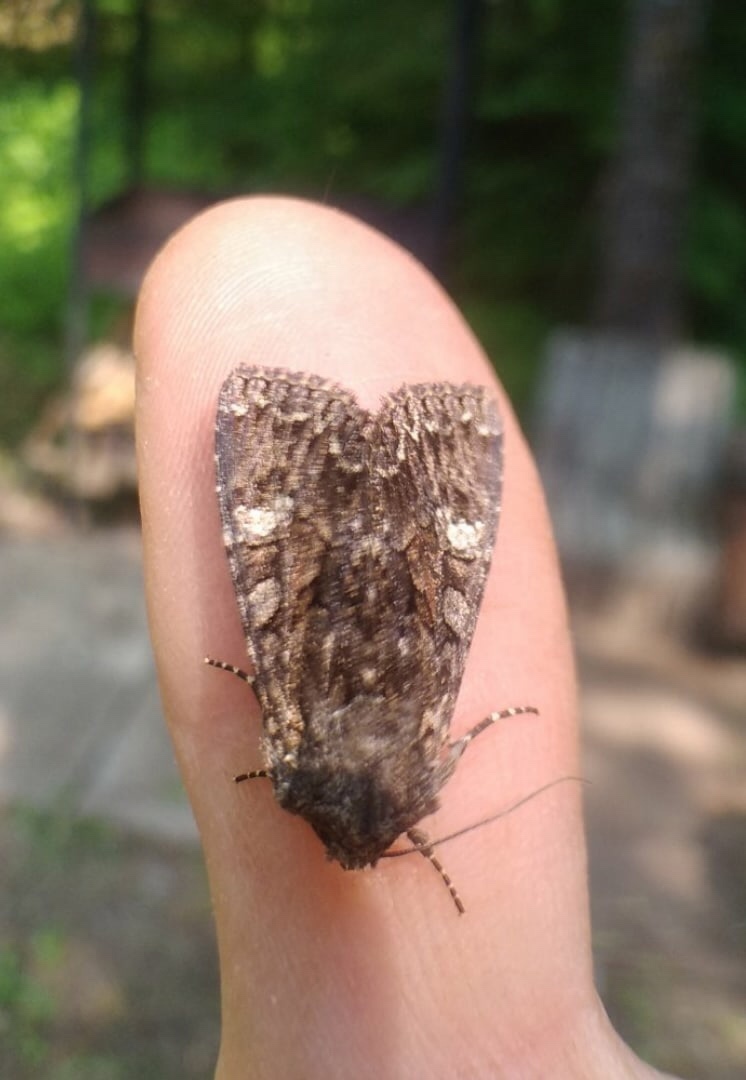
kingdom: Animalia
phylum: Arthropoda
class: Insecta
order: Lepidoptera
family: Noctuidae
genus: Mniotype
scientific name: Mniotype adusta
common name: Dark brocade
